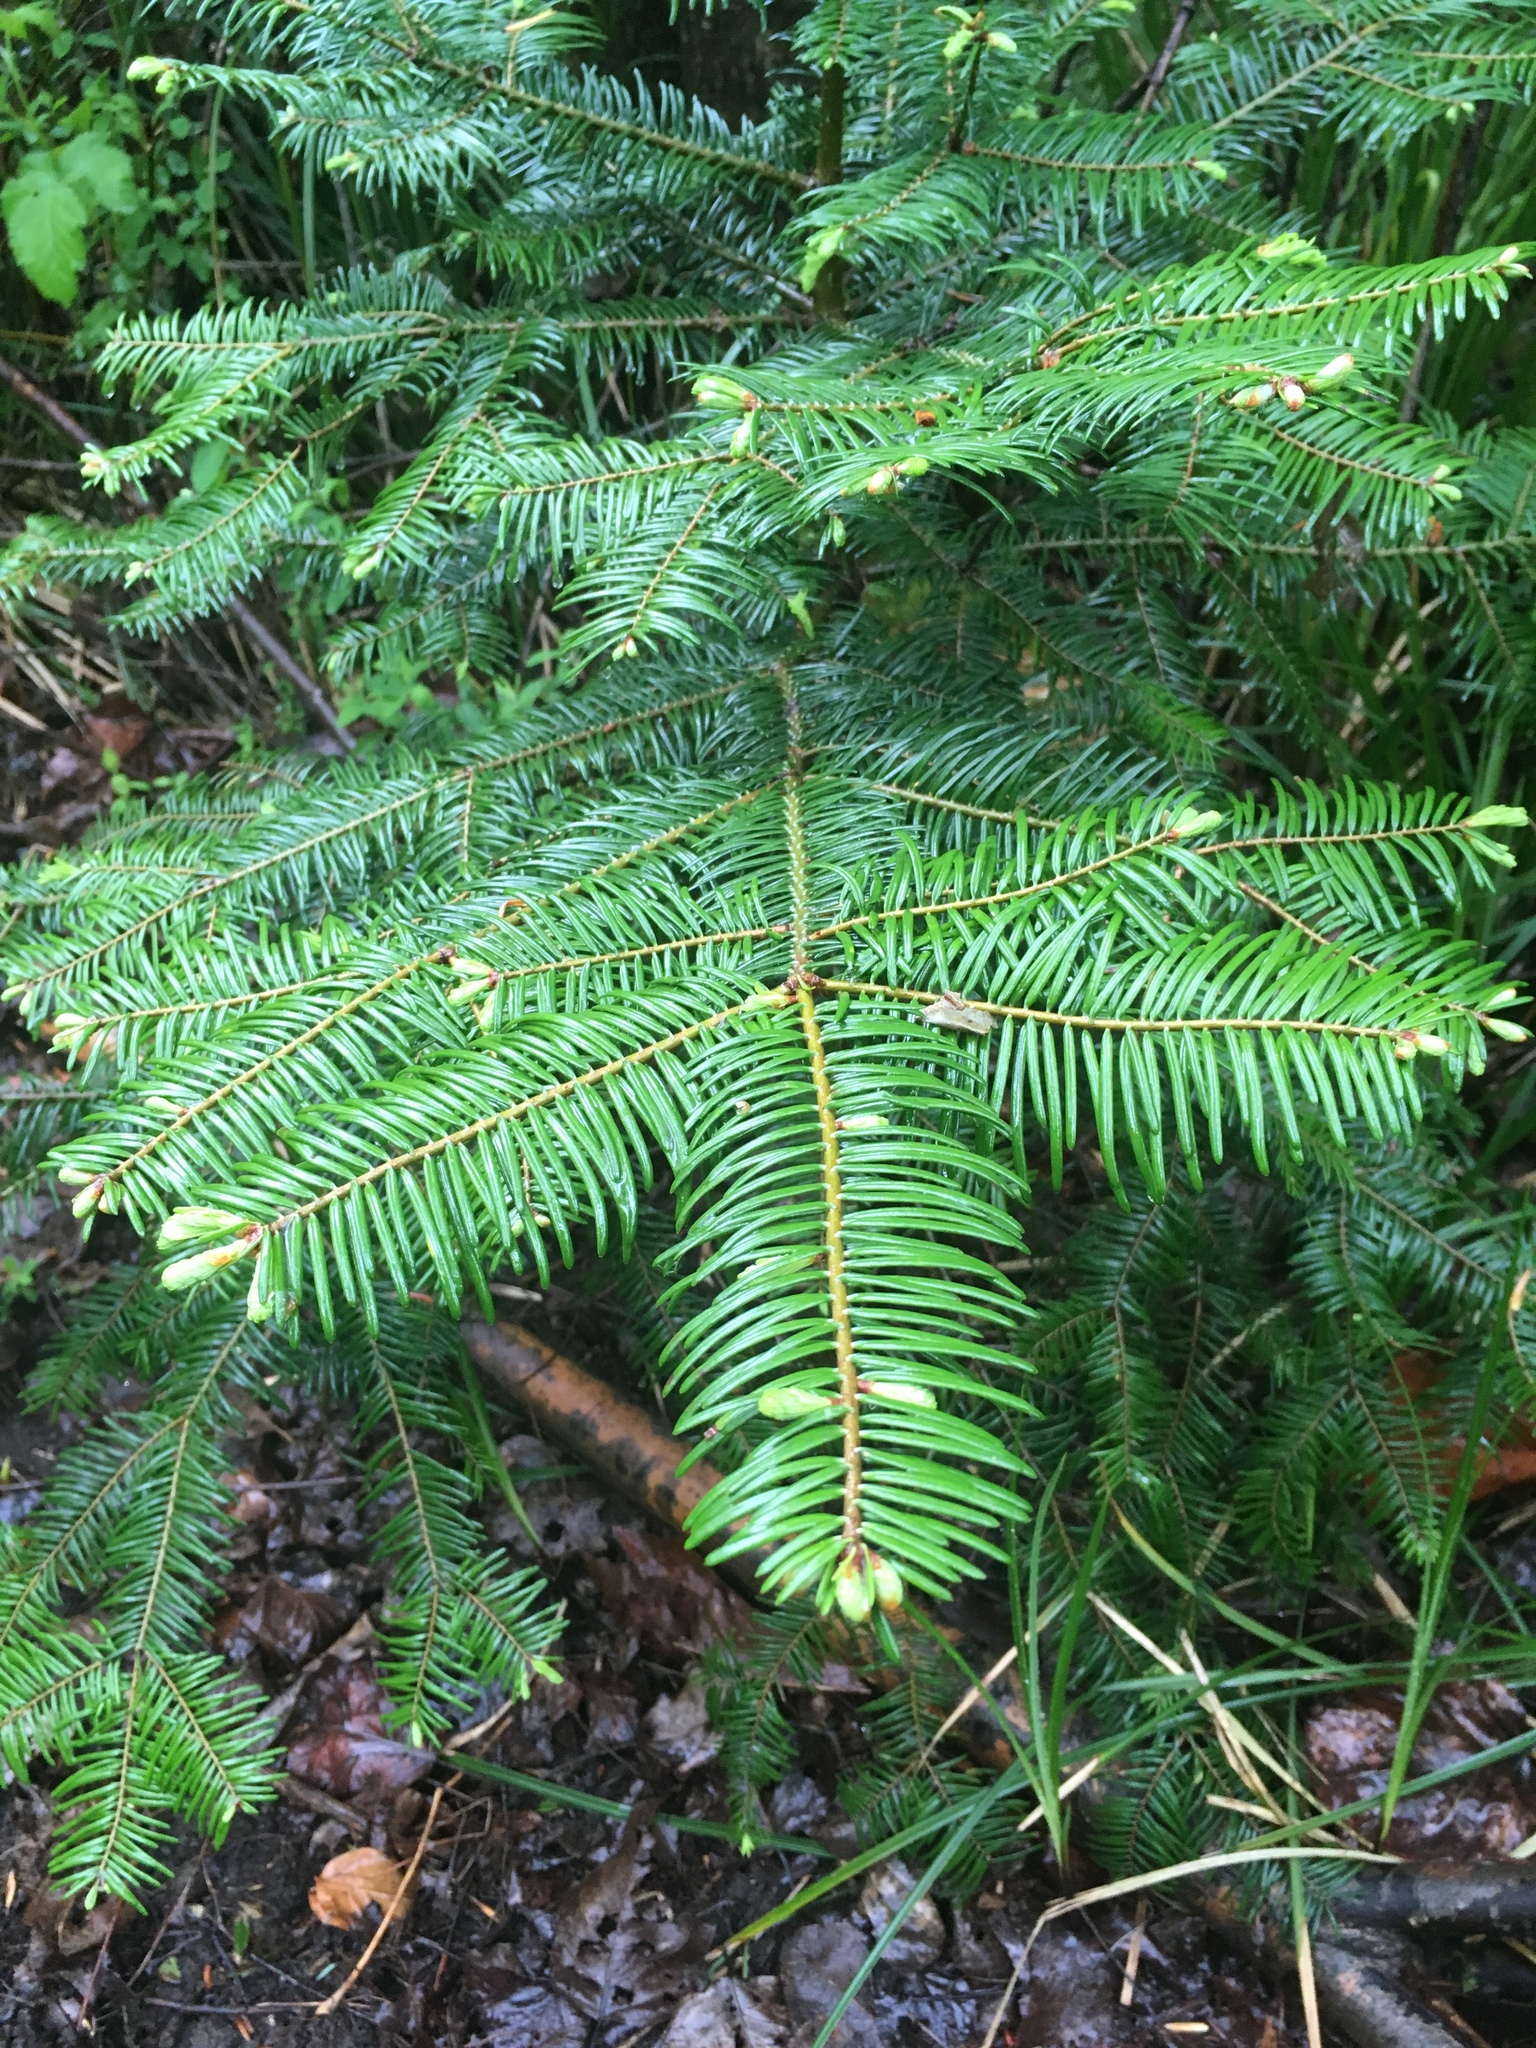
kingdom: Plantae
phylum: Tracheophyta
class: Pinopsida
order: Pinales
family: Pinaceae
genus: Abies
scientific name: Abies grandis
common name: Giant fir
